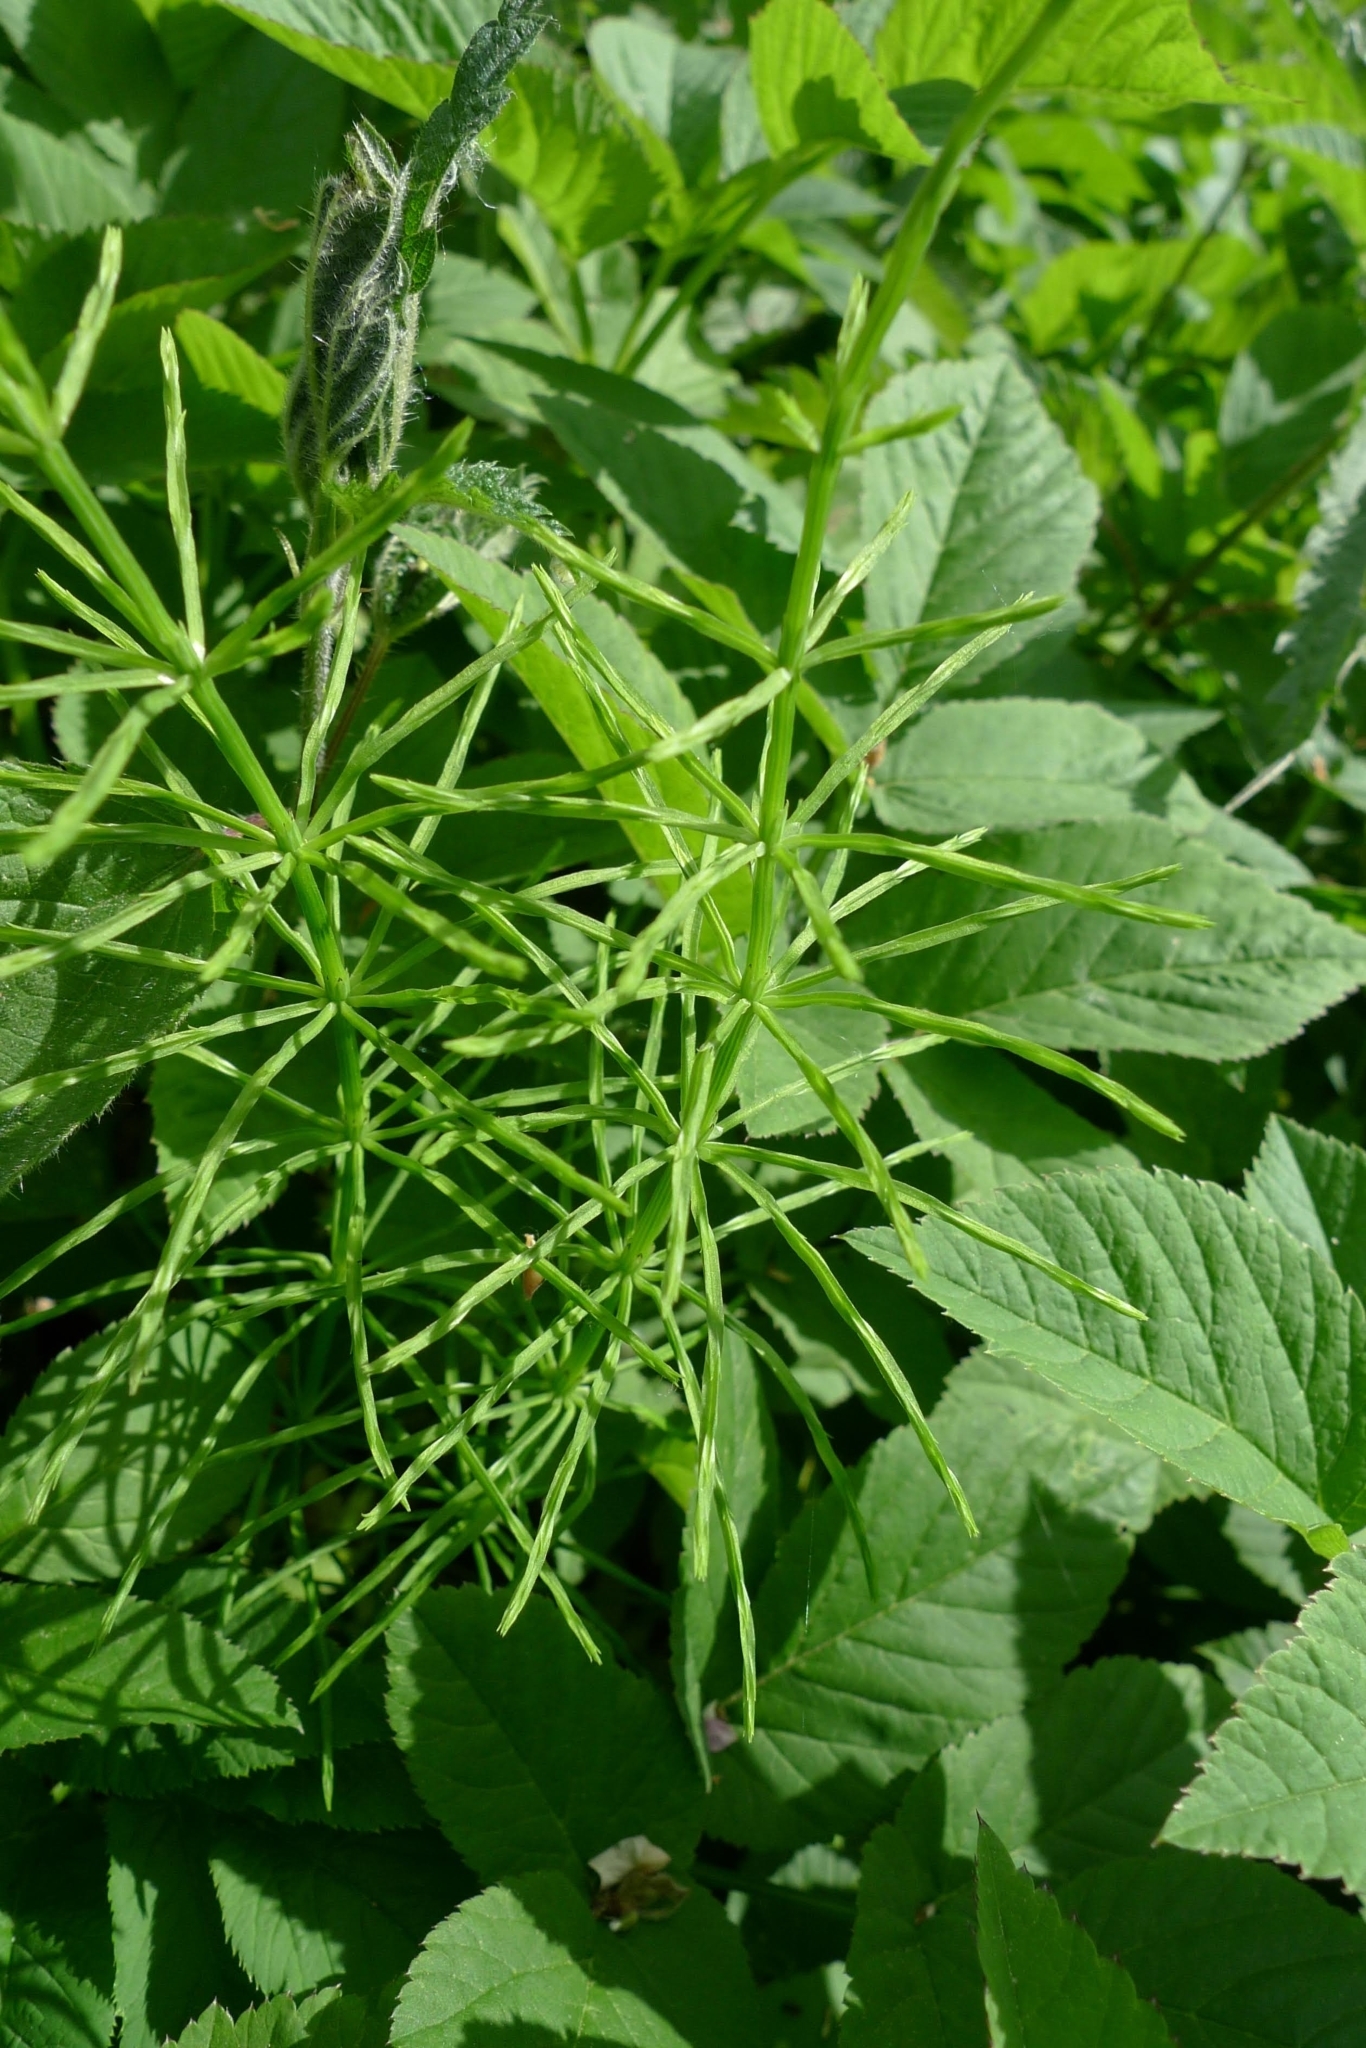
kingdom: Plantae
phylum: Tracheophyta
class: Polypodiopsida
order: Equisetales
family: Equisetaceae
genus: Equisetum
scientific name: Equisetum arvense
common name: Field horsetail
